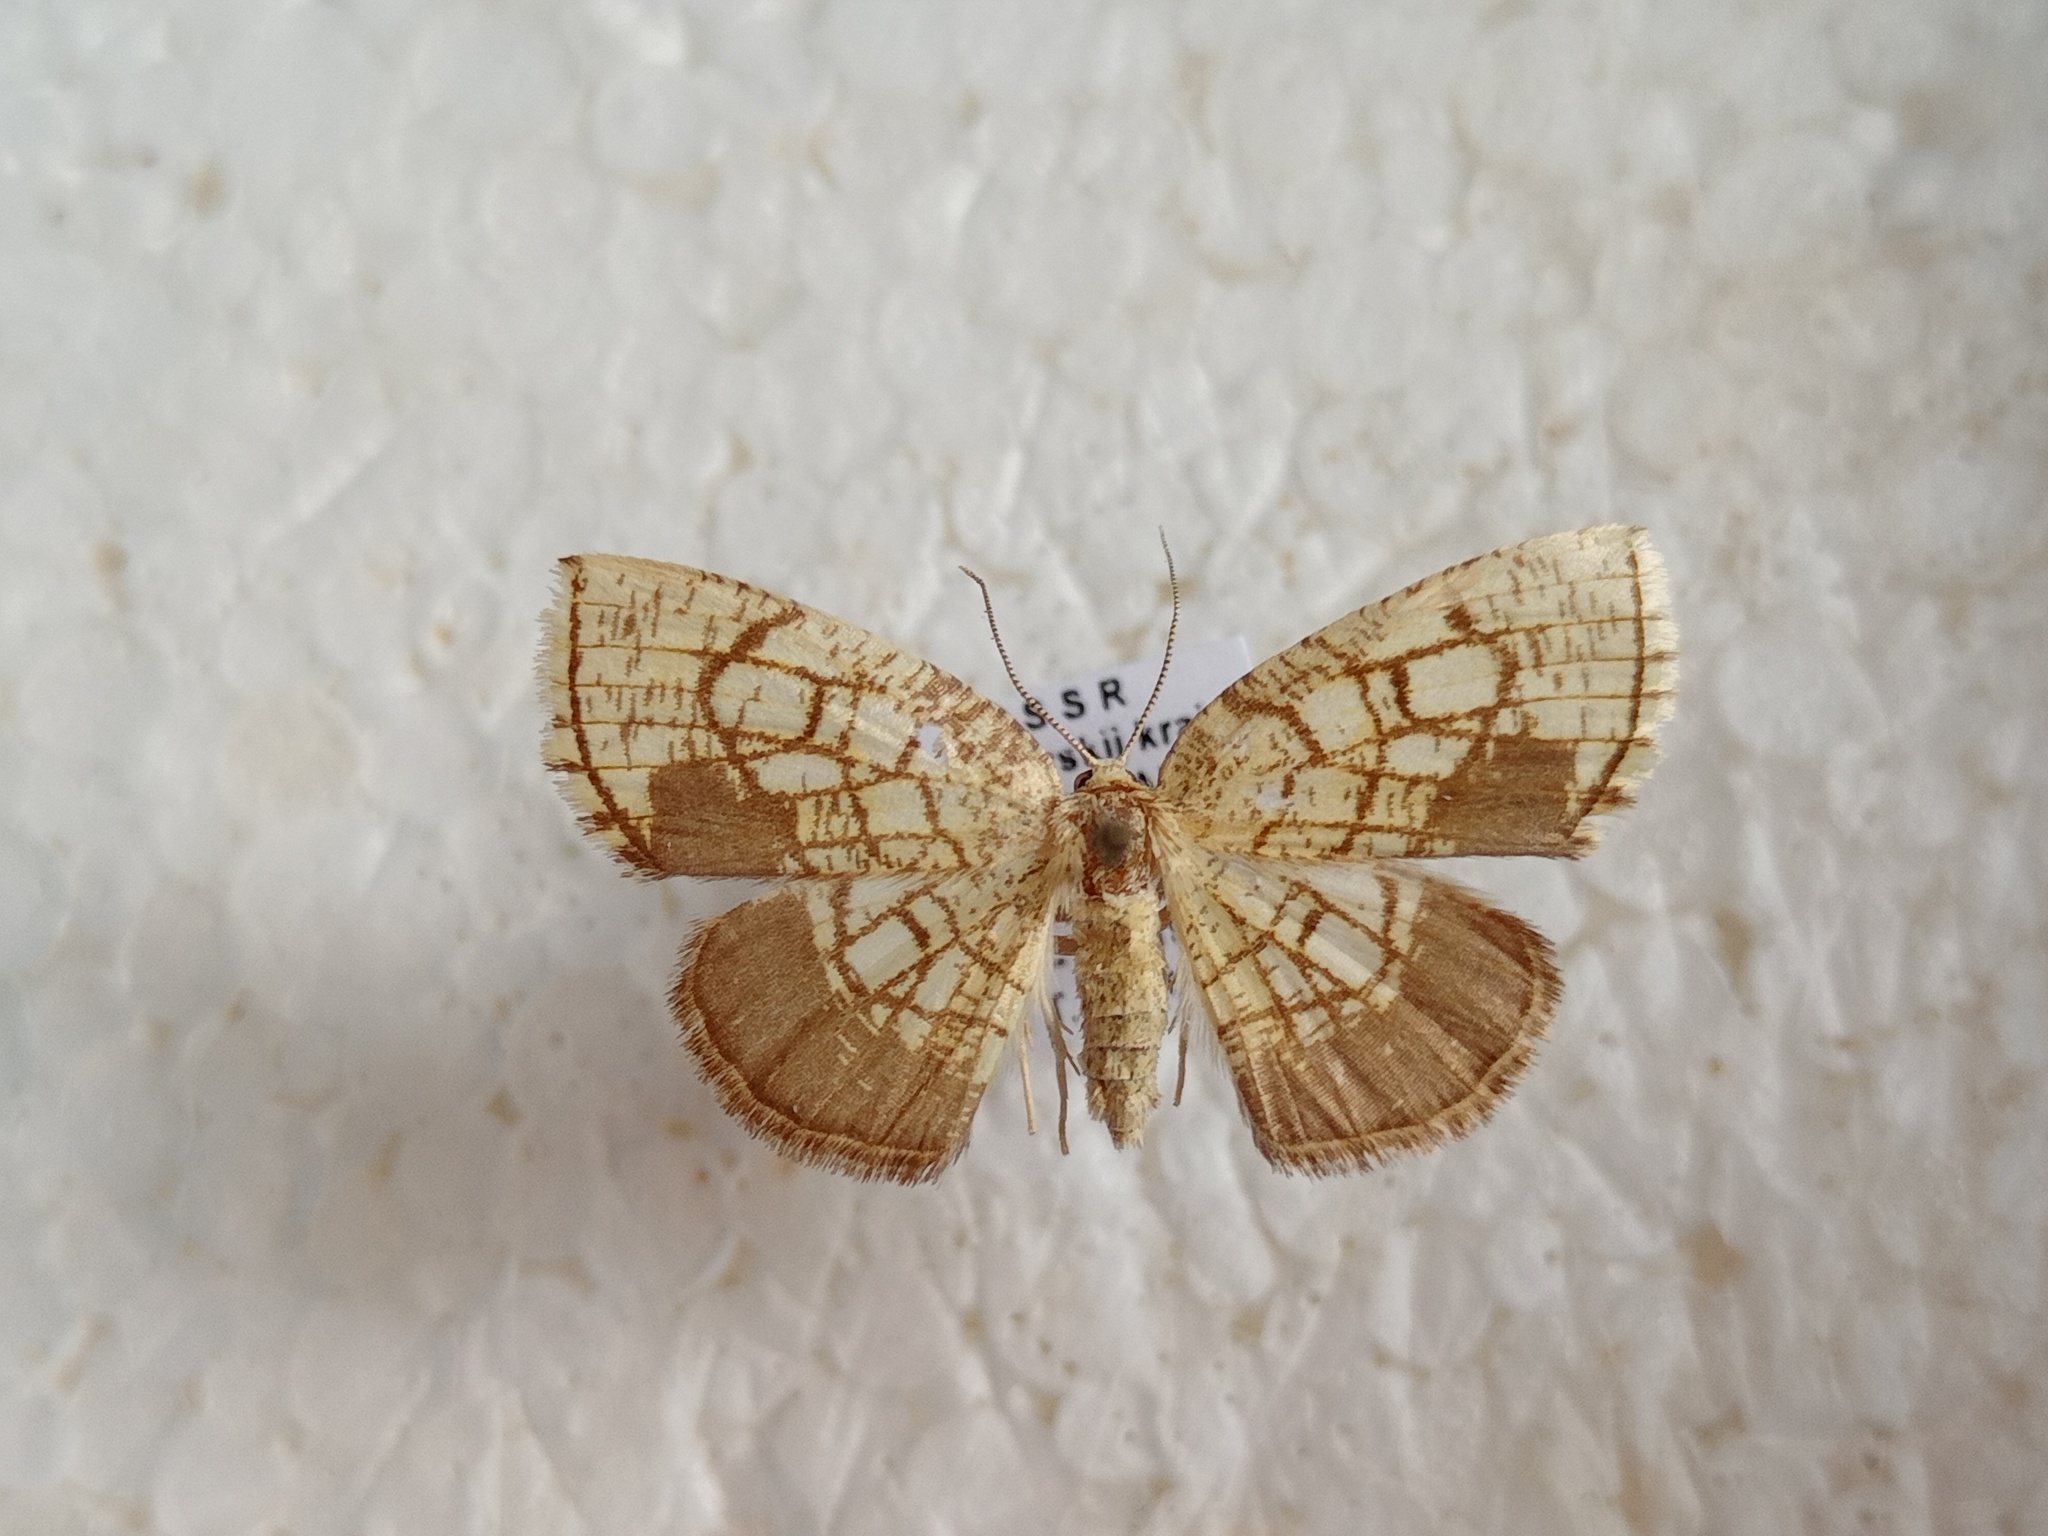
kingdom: Animalia
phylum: Arthropoda
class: Insecta
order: Lepidoptera
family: Geometridae
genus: Cabera
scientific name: Cabera griseolimbata
